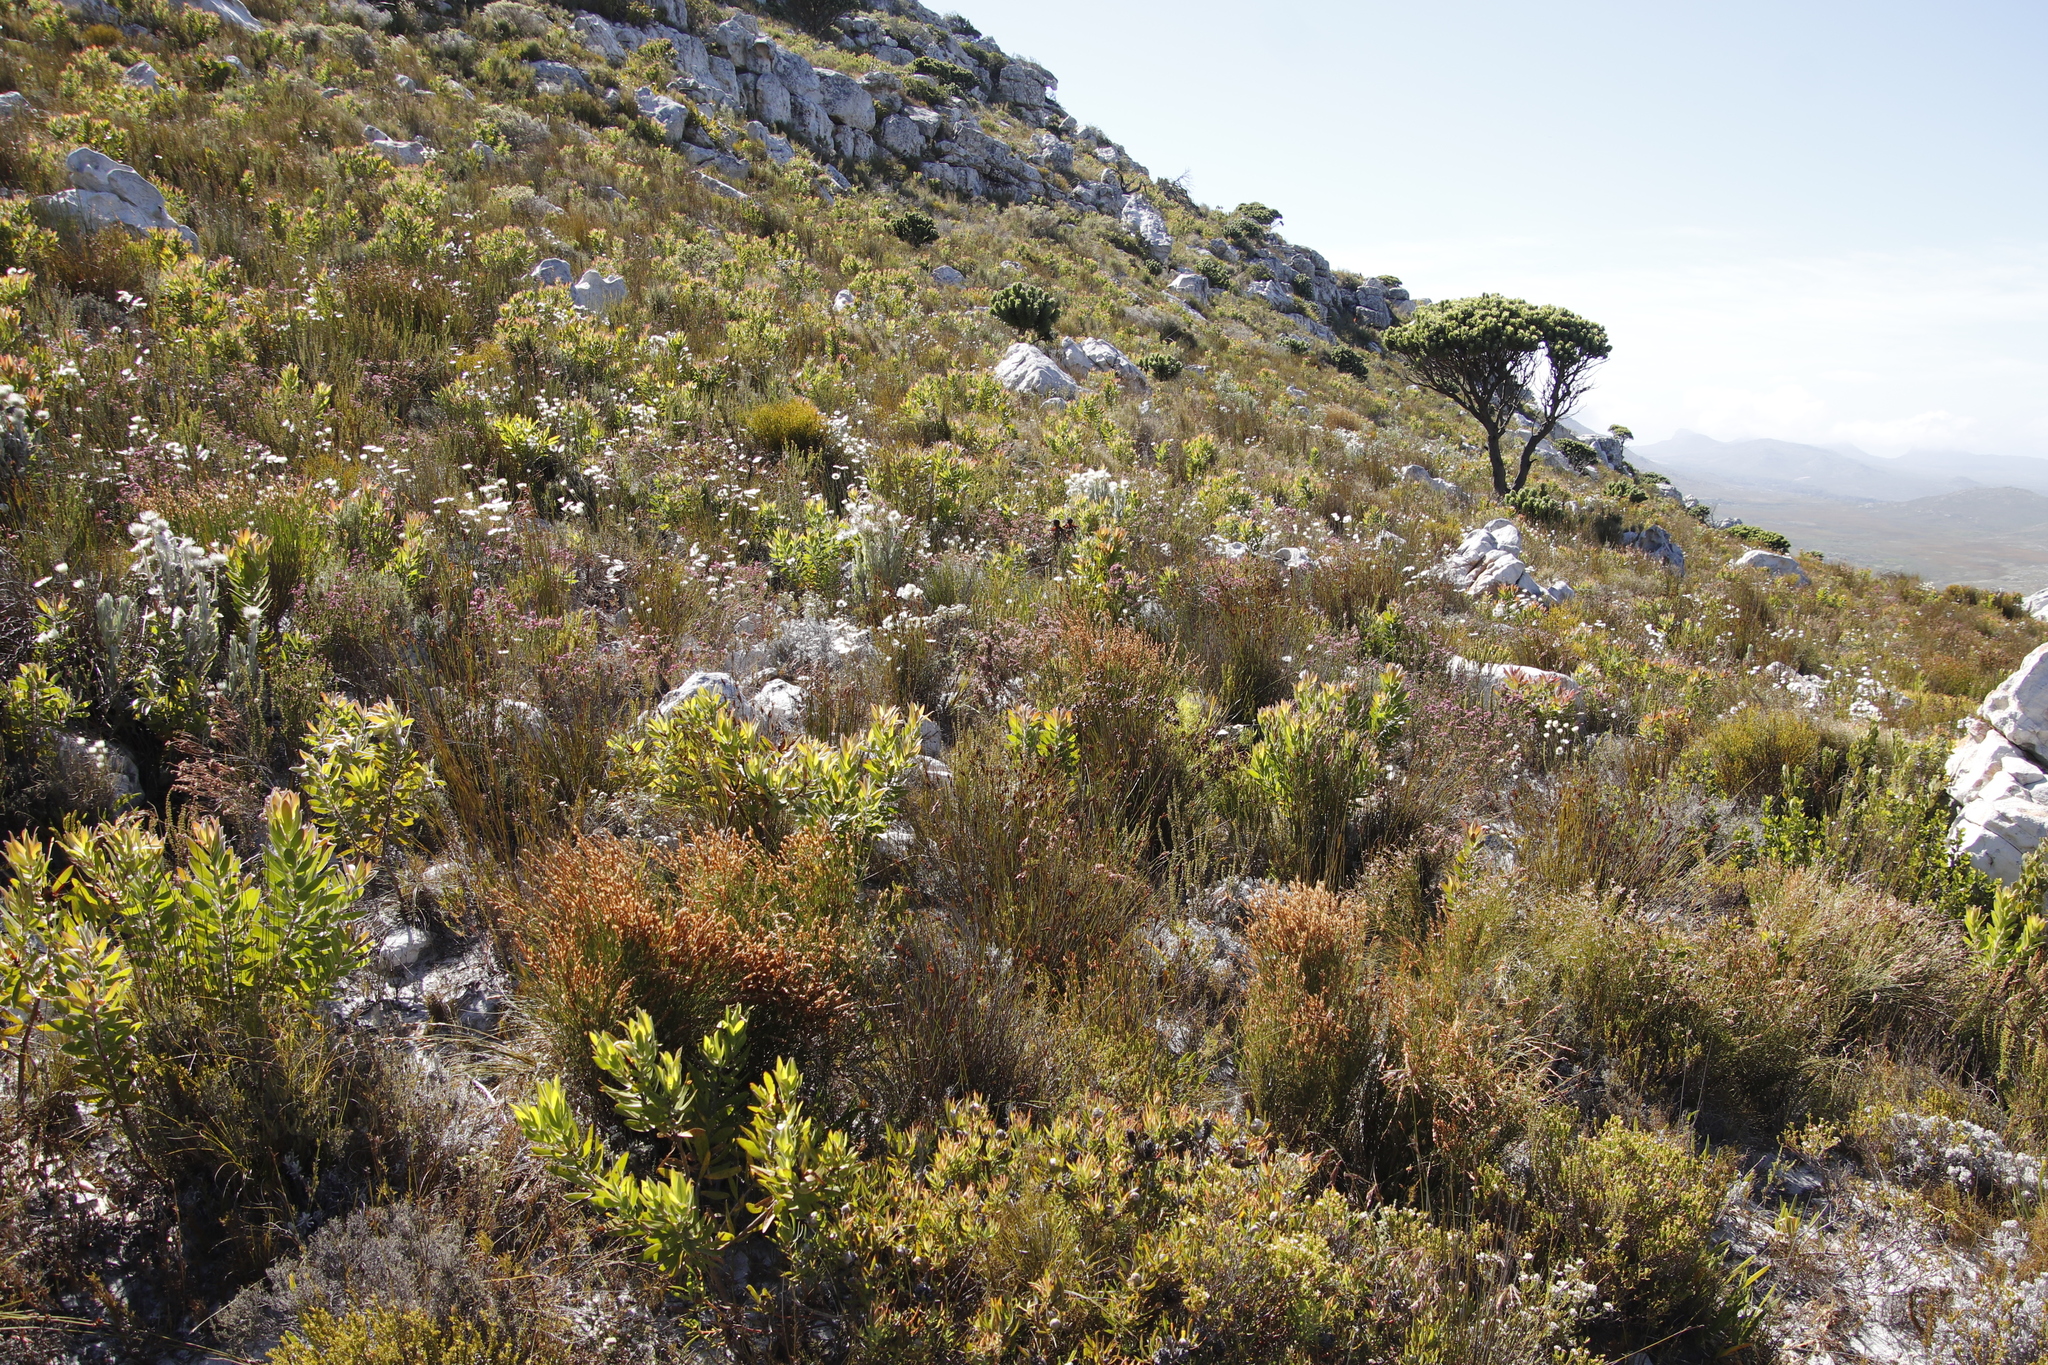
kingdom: Plantae
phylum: Tracheophyta
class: Magnoliopsida
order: Asterales
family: Asteraceae
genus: Edmondia
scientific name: Edmondia sesamoides
